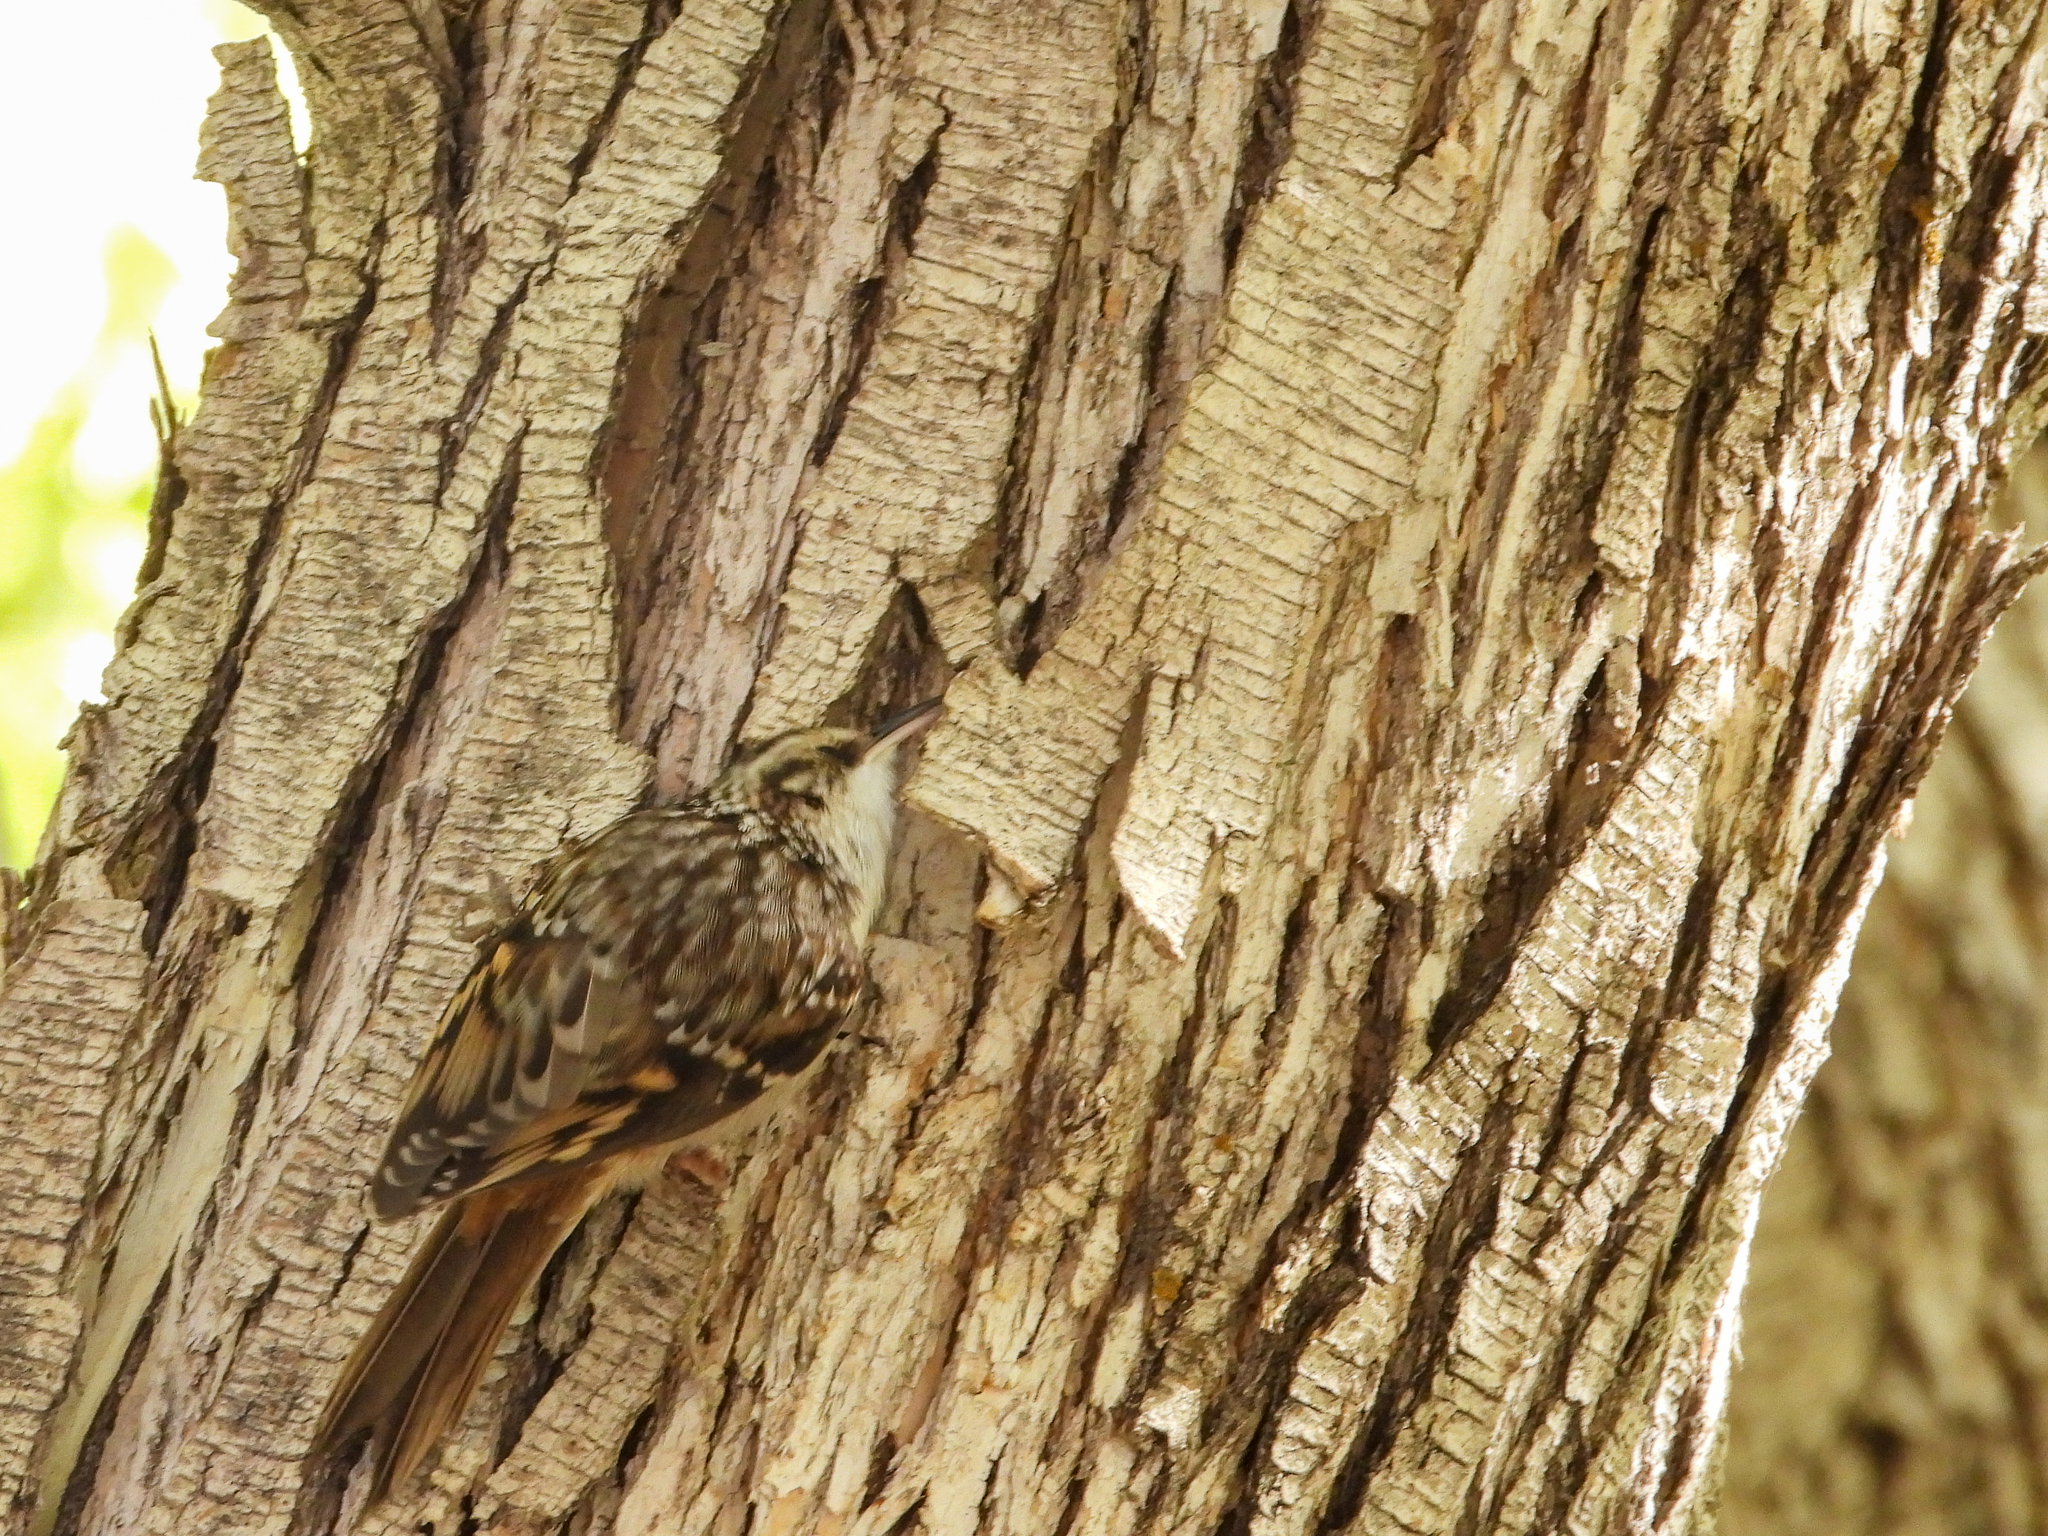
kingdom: Animalia
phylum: Chordata
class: Aves
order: Passeriformes
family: Certhiidae
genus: Certhia
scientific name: Certhia americana
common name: Brown creeper
